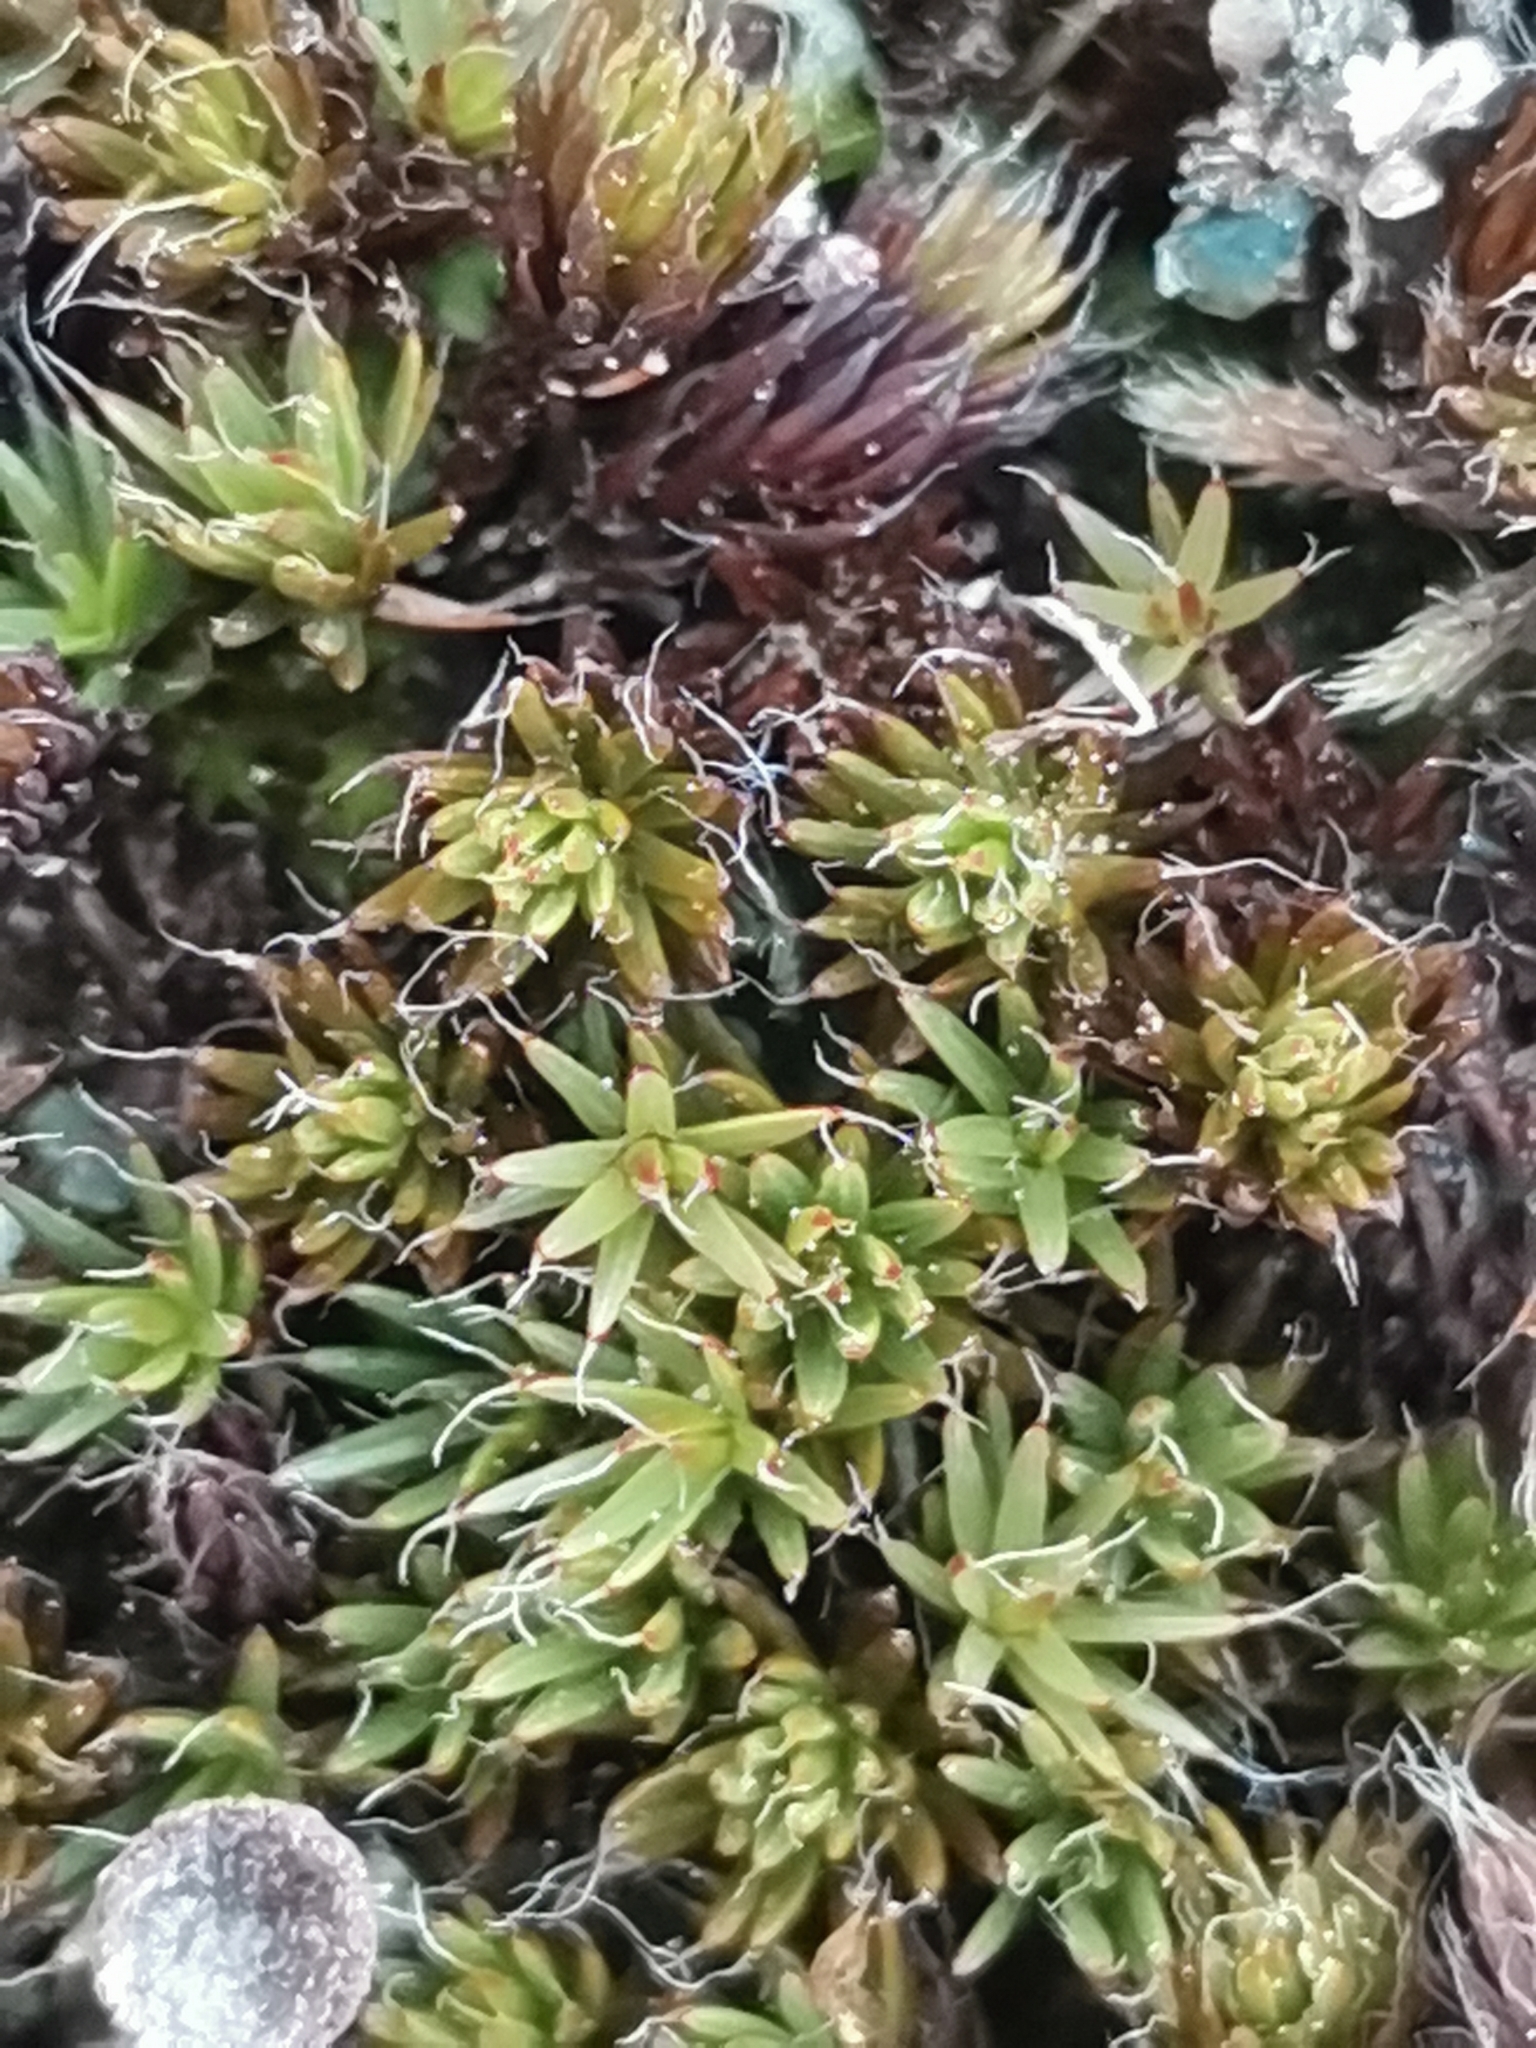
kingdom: Plantae
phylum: Bryophyta
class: Polytrichopsida
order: Polytrichales
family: Polytrichaceae
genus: Polytrichum
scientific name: Polytrichum piliferum
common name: Bristly haircap
